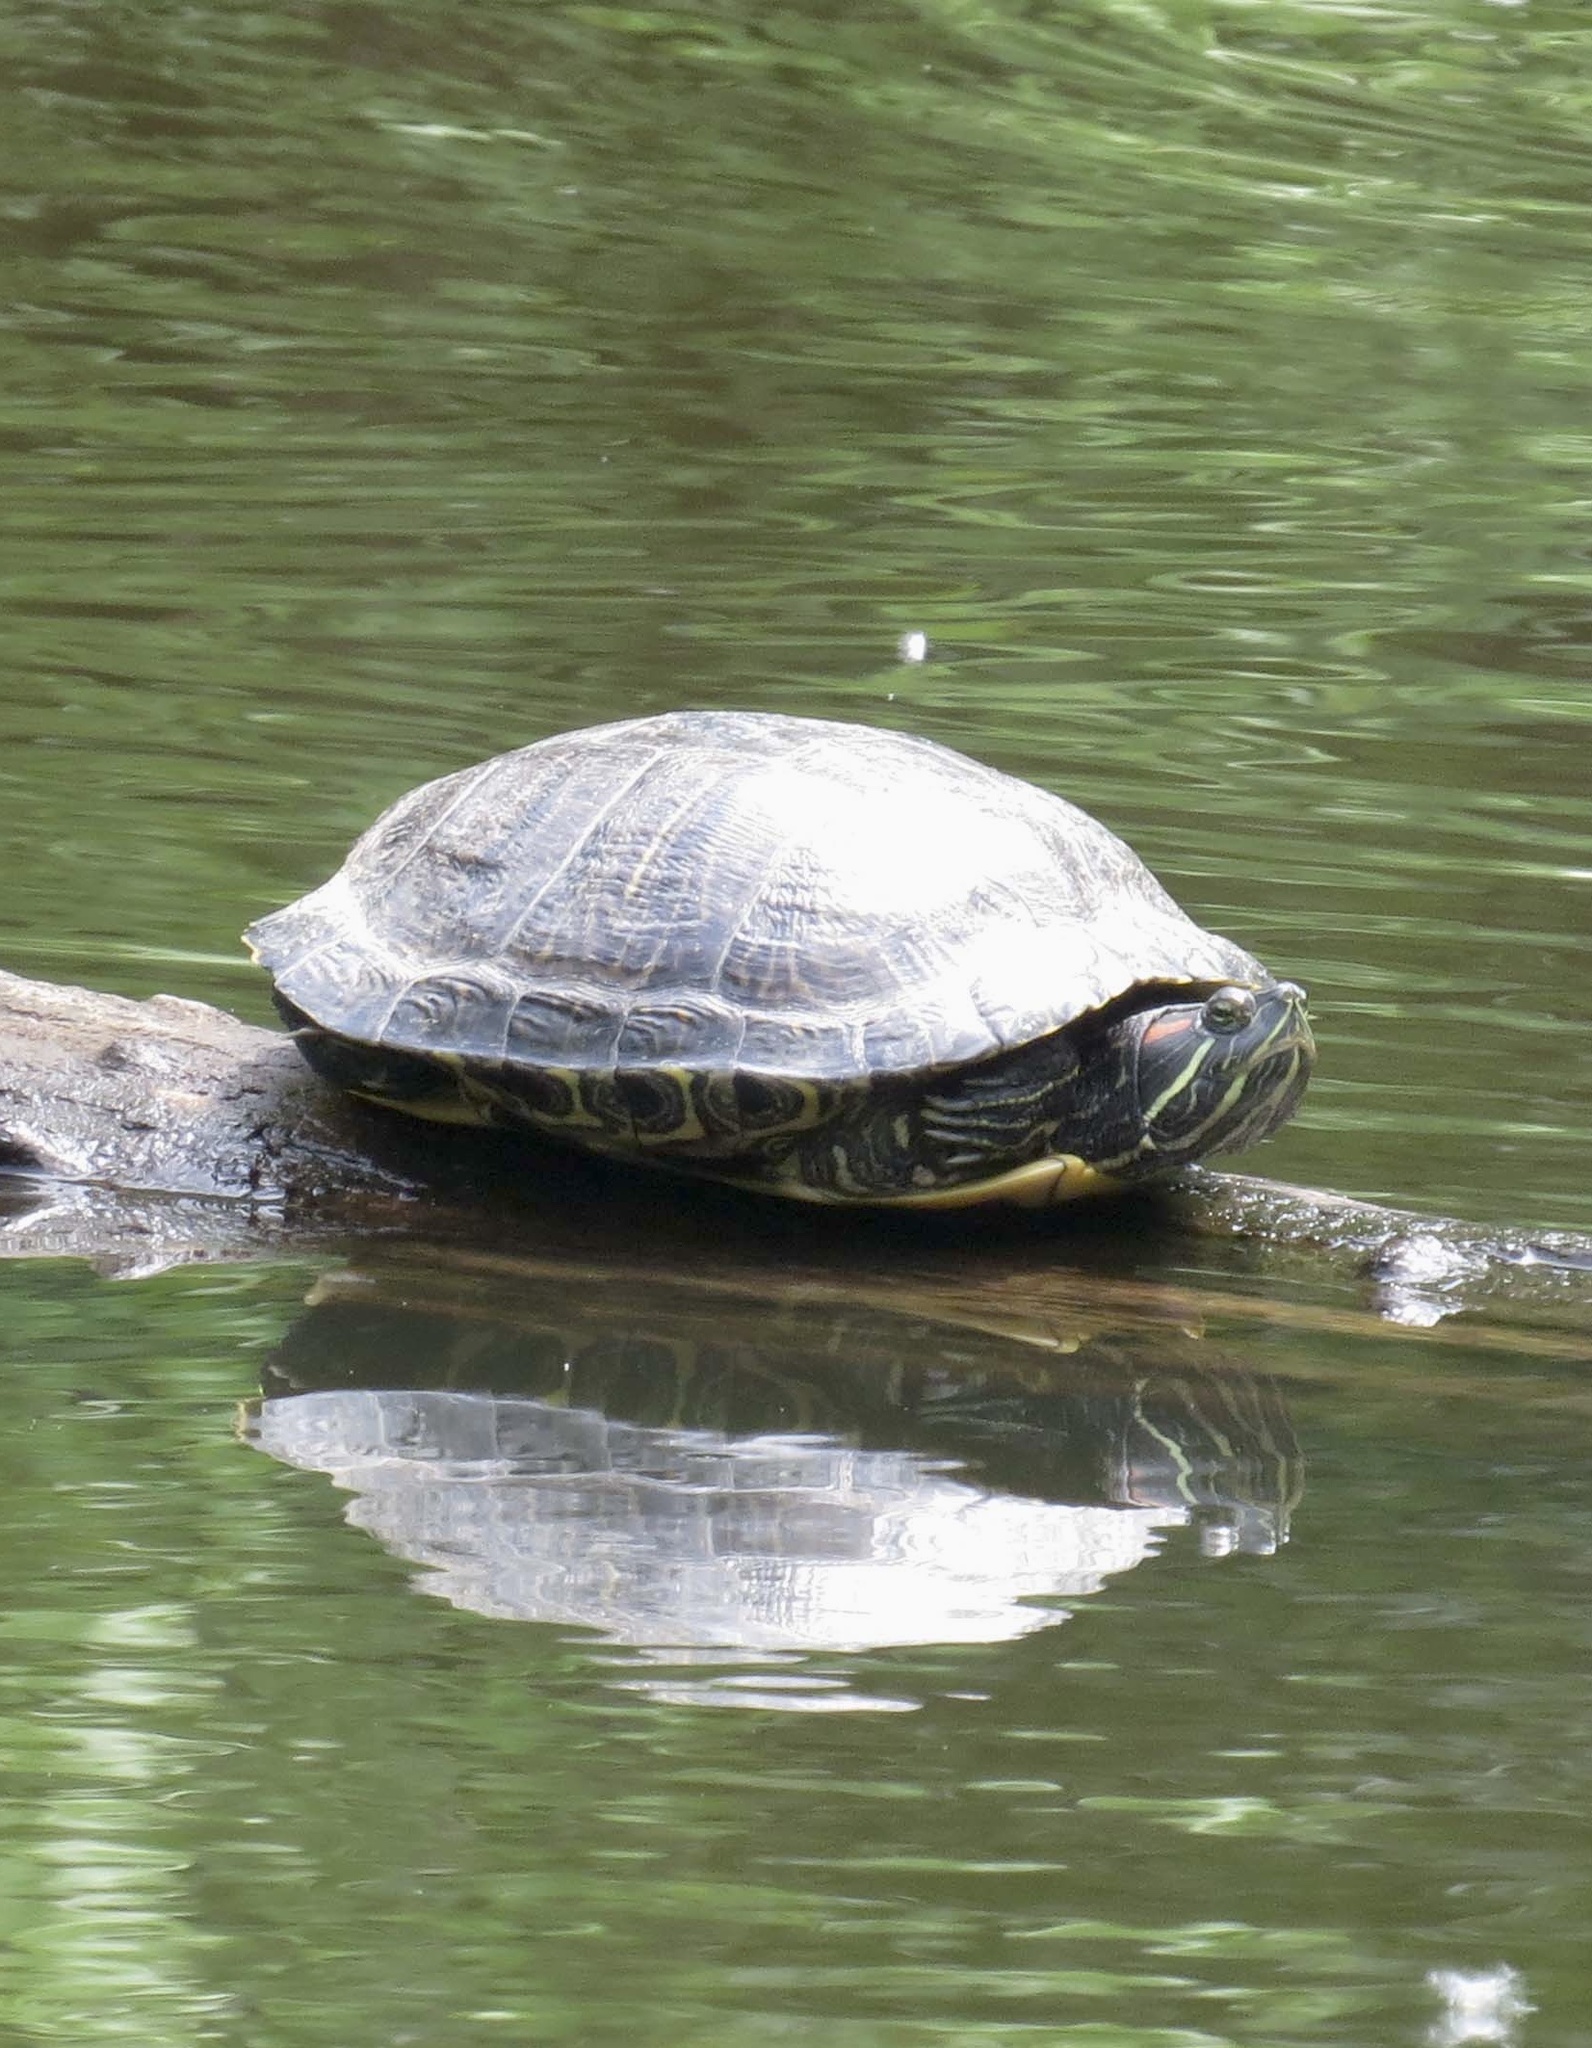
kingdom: Animalia
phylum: Chordata
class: Testudines
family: Emydidae
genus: Trachemys
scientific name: Trachemys scripta
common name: Slider
